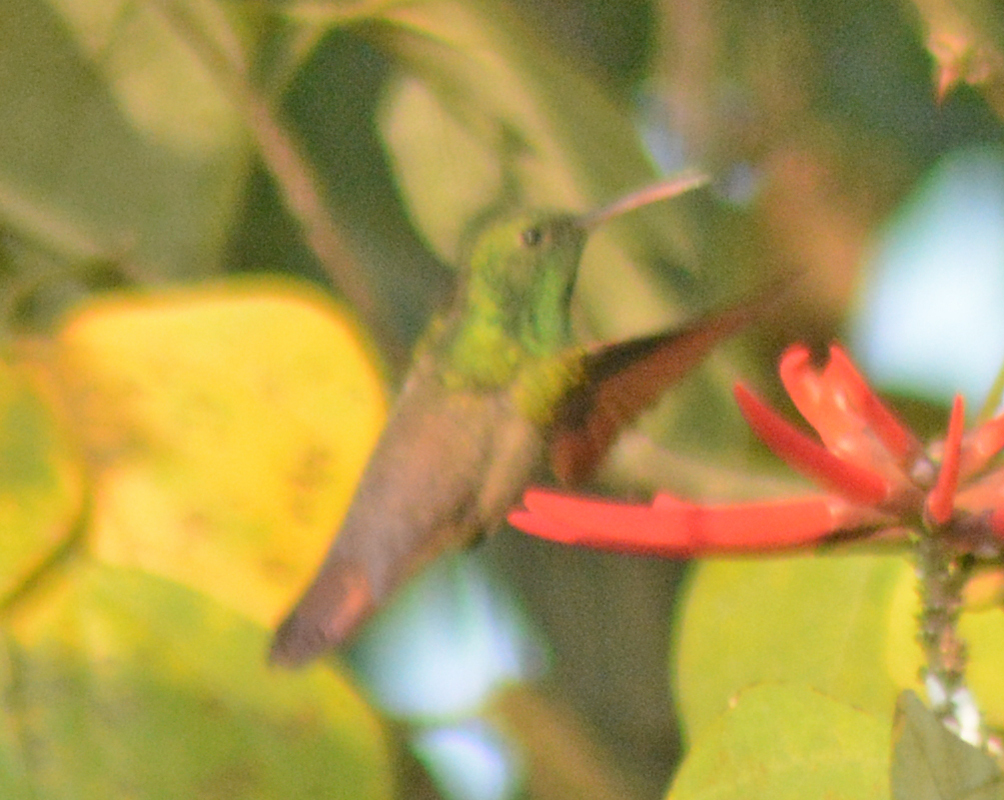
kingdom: Animalia
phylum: Chordata
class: Aves
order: Apodiformes
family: Trochilidae
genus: Saucerottia
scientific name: Saucerottia beryllina
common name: Berylline hummingbird
